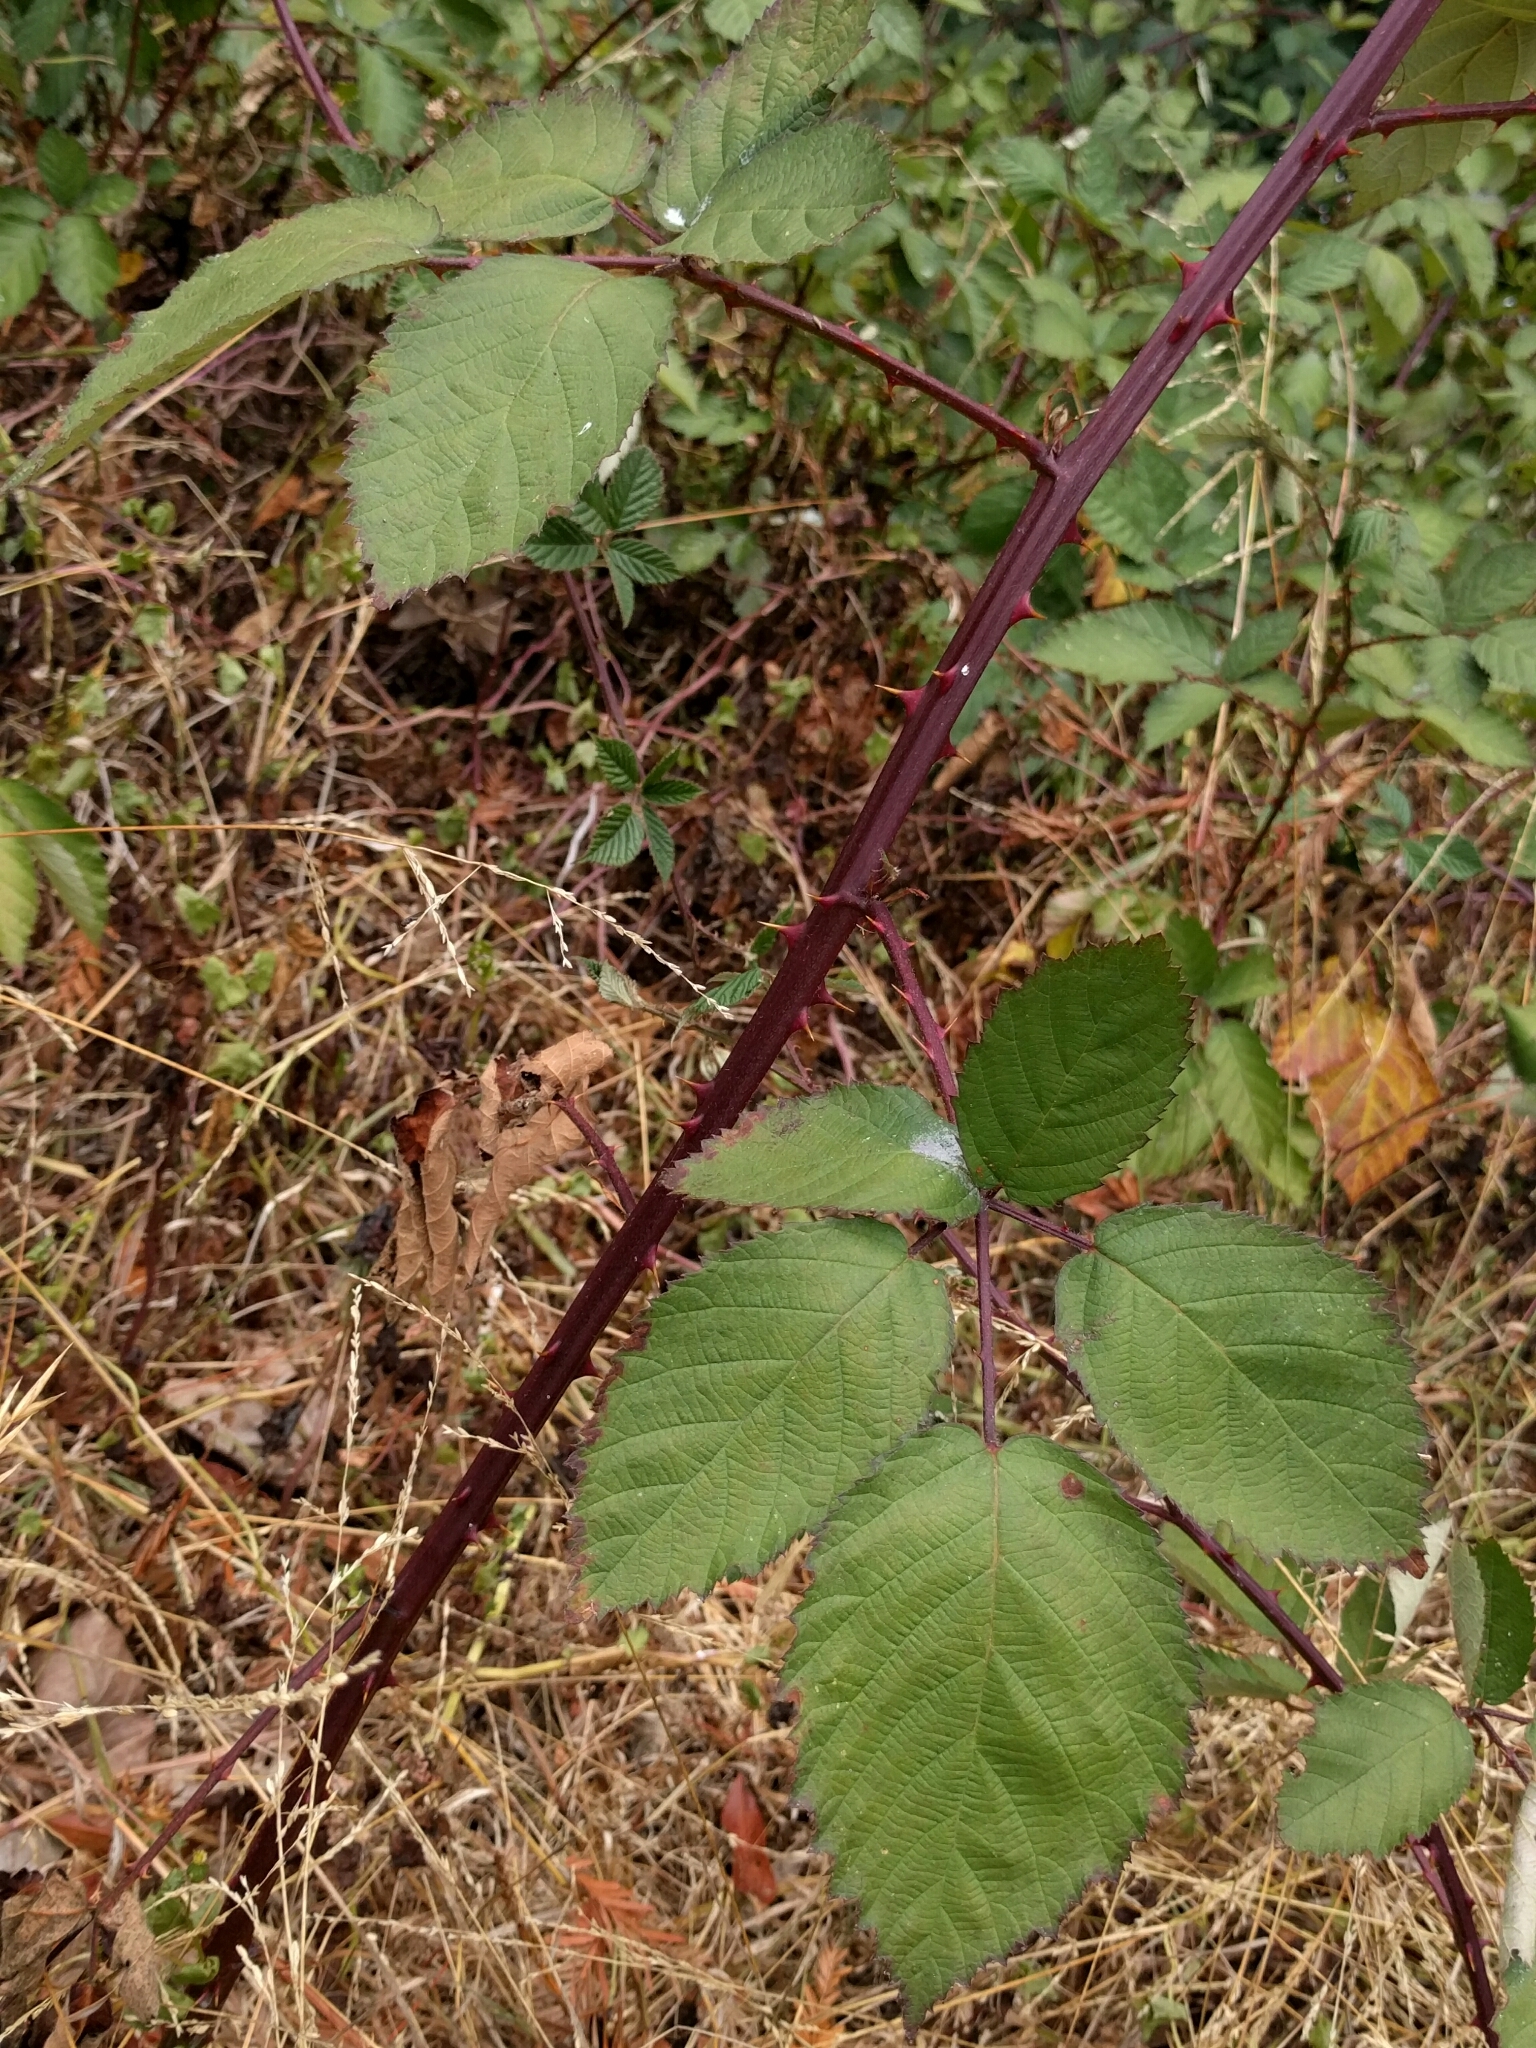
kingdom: Plantae
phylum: Tracheophyta
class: Magnoliopsida
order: Rosales
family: Rosaceae
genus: Rubus
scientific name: Rubus armeniacus
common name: Himalayan blackberry
